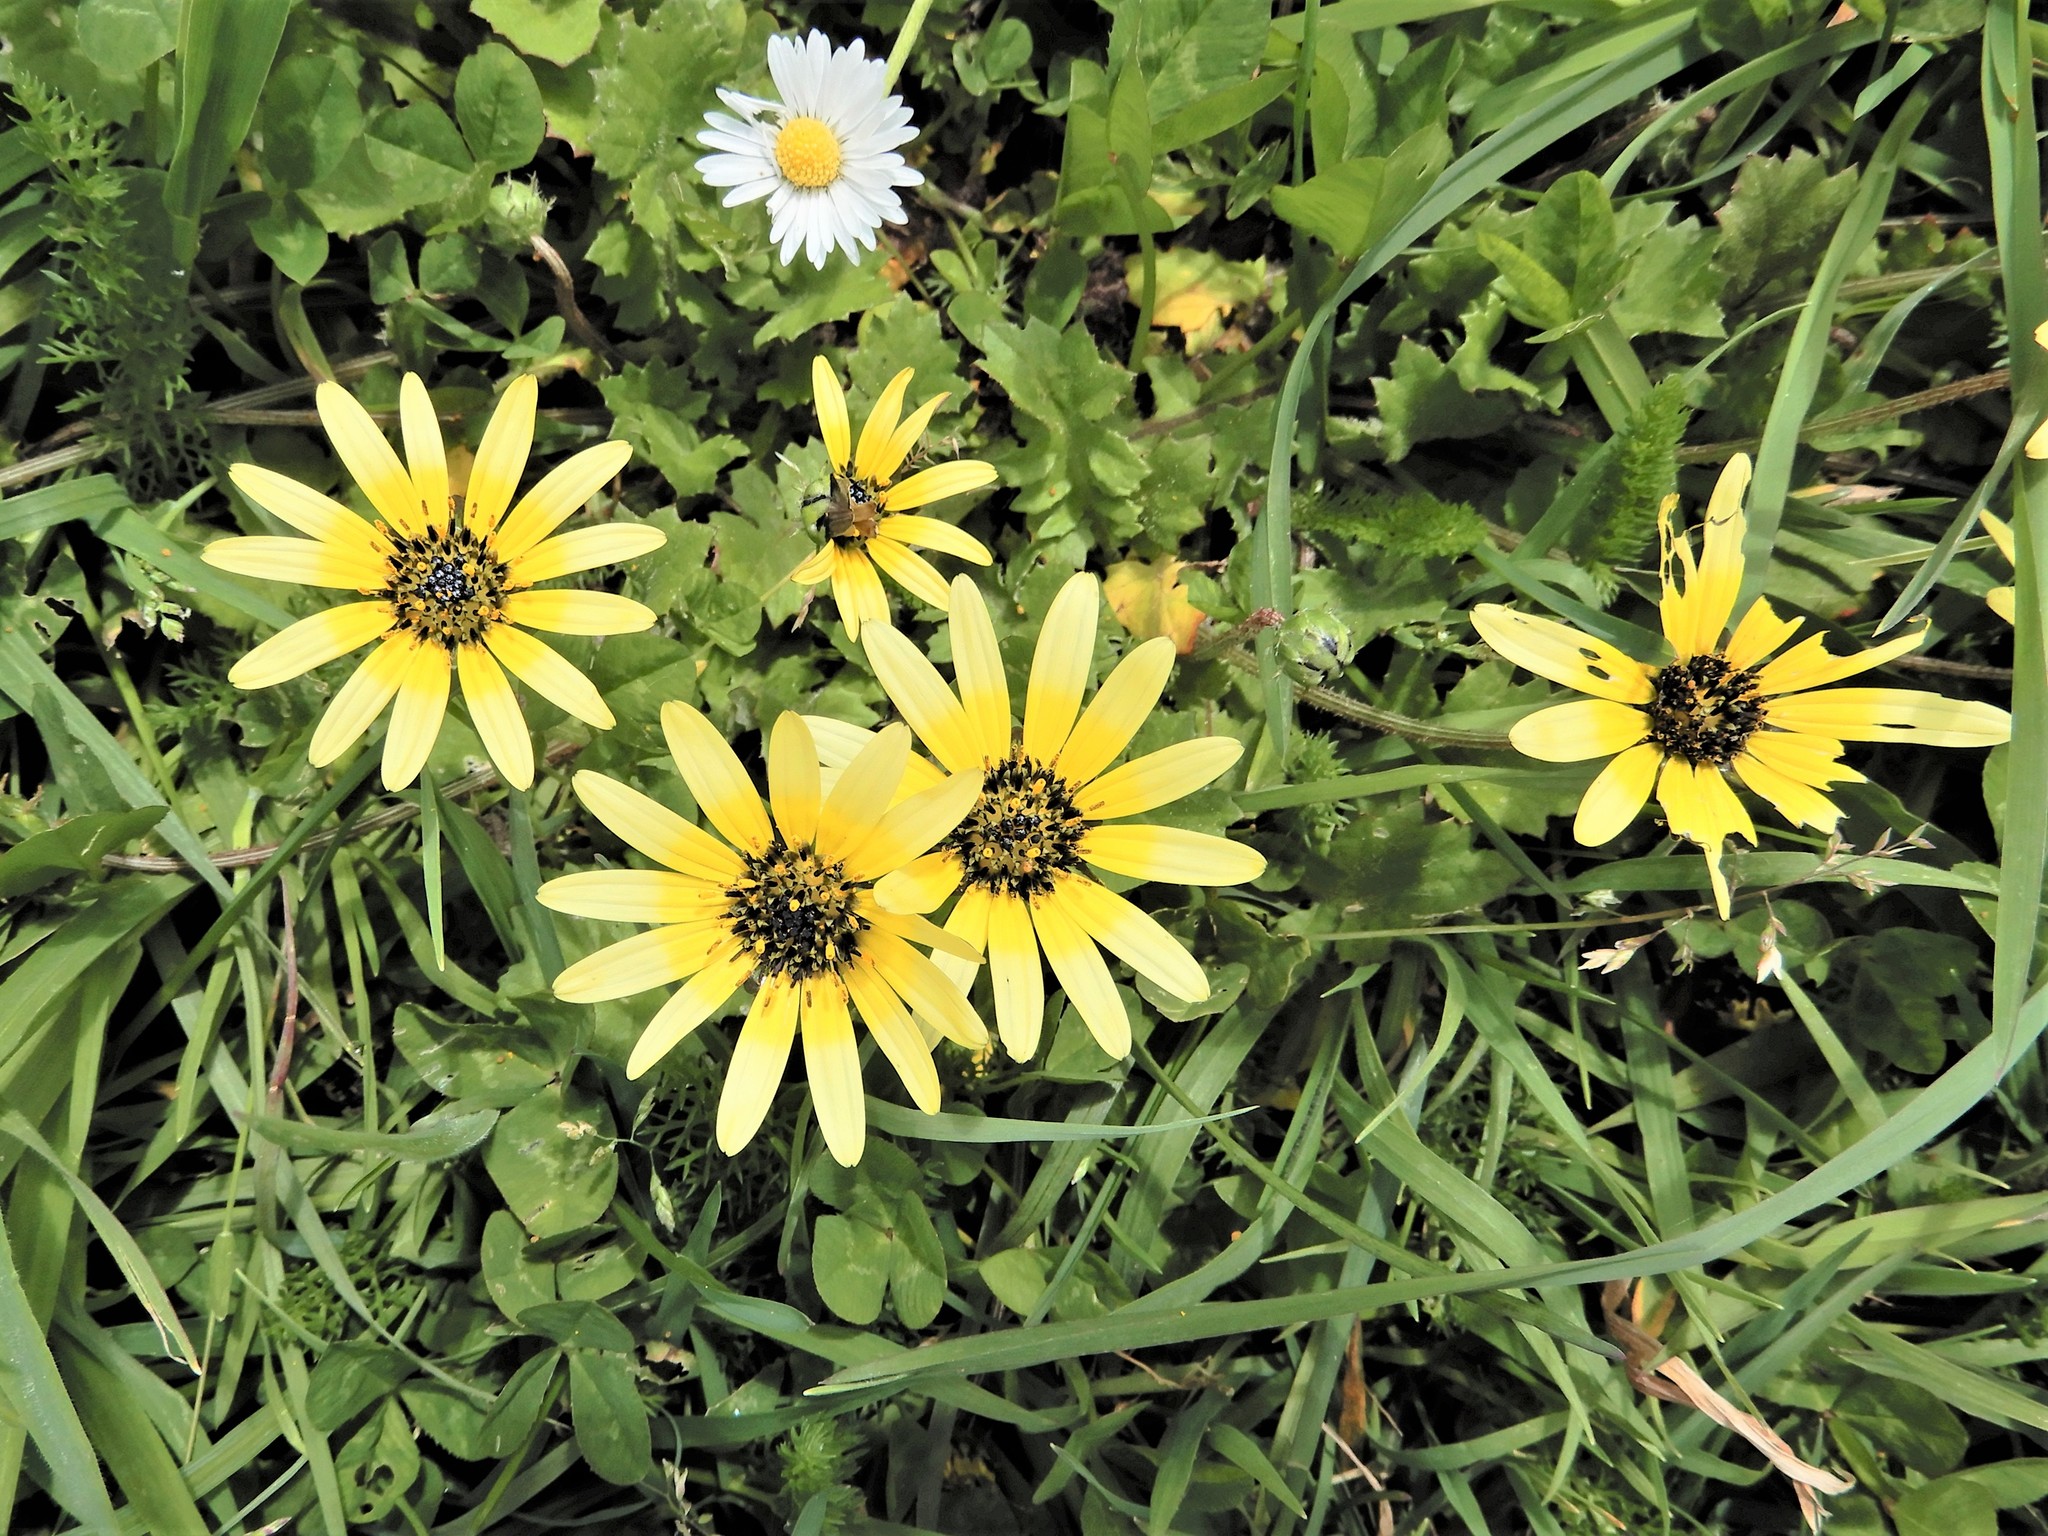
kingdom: Plantae
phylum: Tracheophyta
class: Magnoliopsida
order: Asterales
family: Asteraceae
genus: Arctotheca
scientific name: Arctotheca calendula
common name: Capeweed
